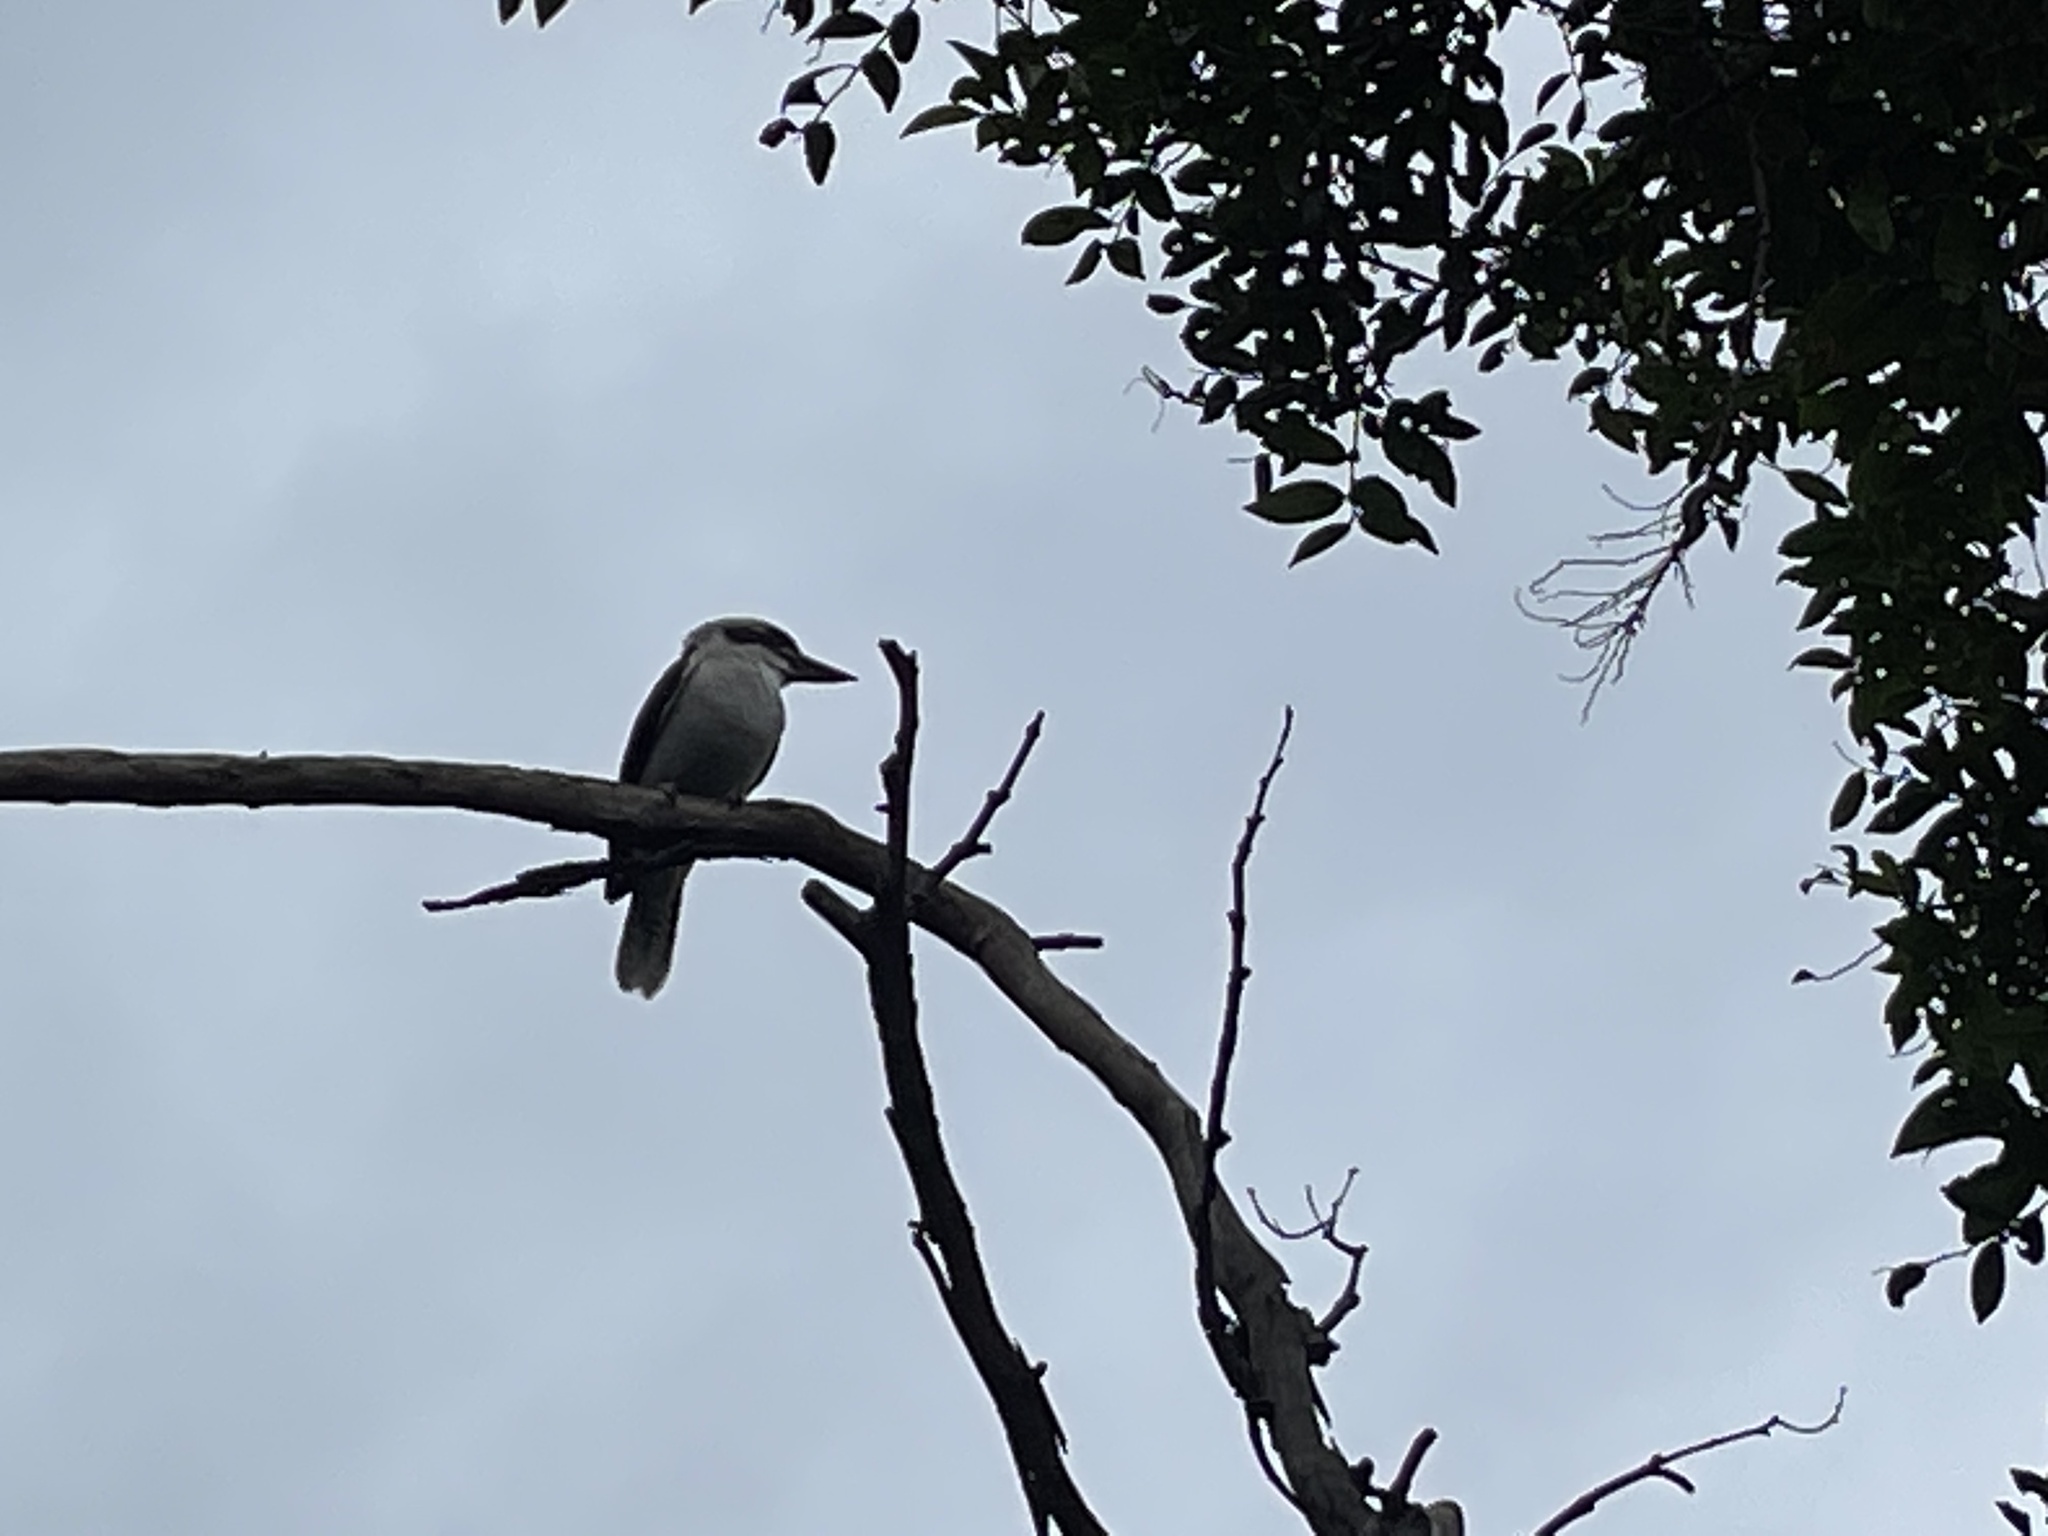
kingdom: Animalia
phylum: Chordata
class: Aves
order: Coraciiformes
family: Alcedinidae
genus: Dacelo
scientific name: Dacelo novaeguineae
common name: Laughing kookaburra
